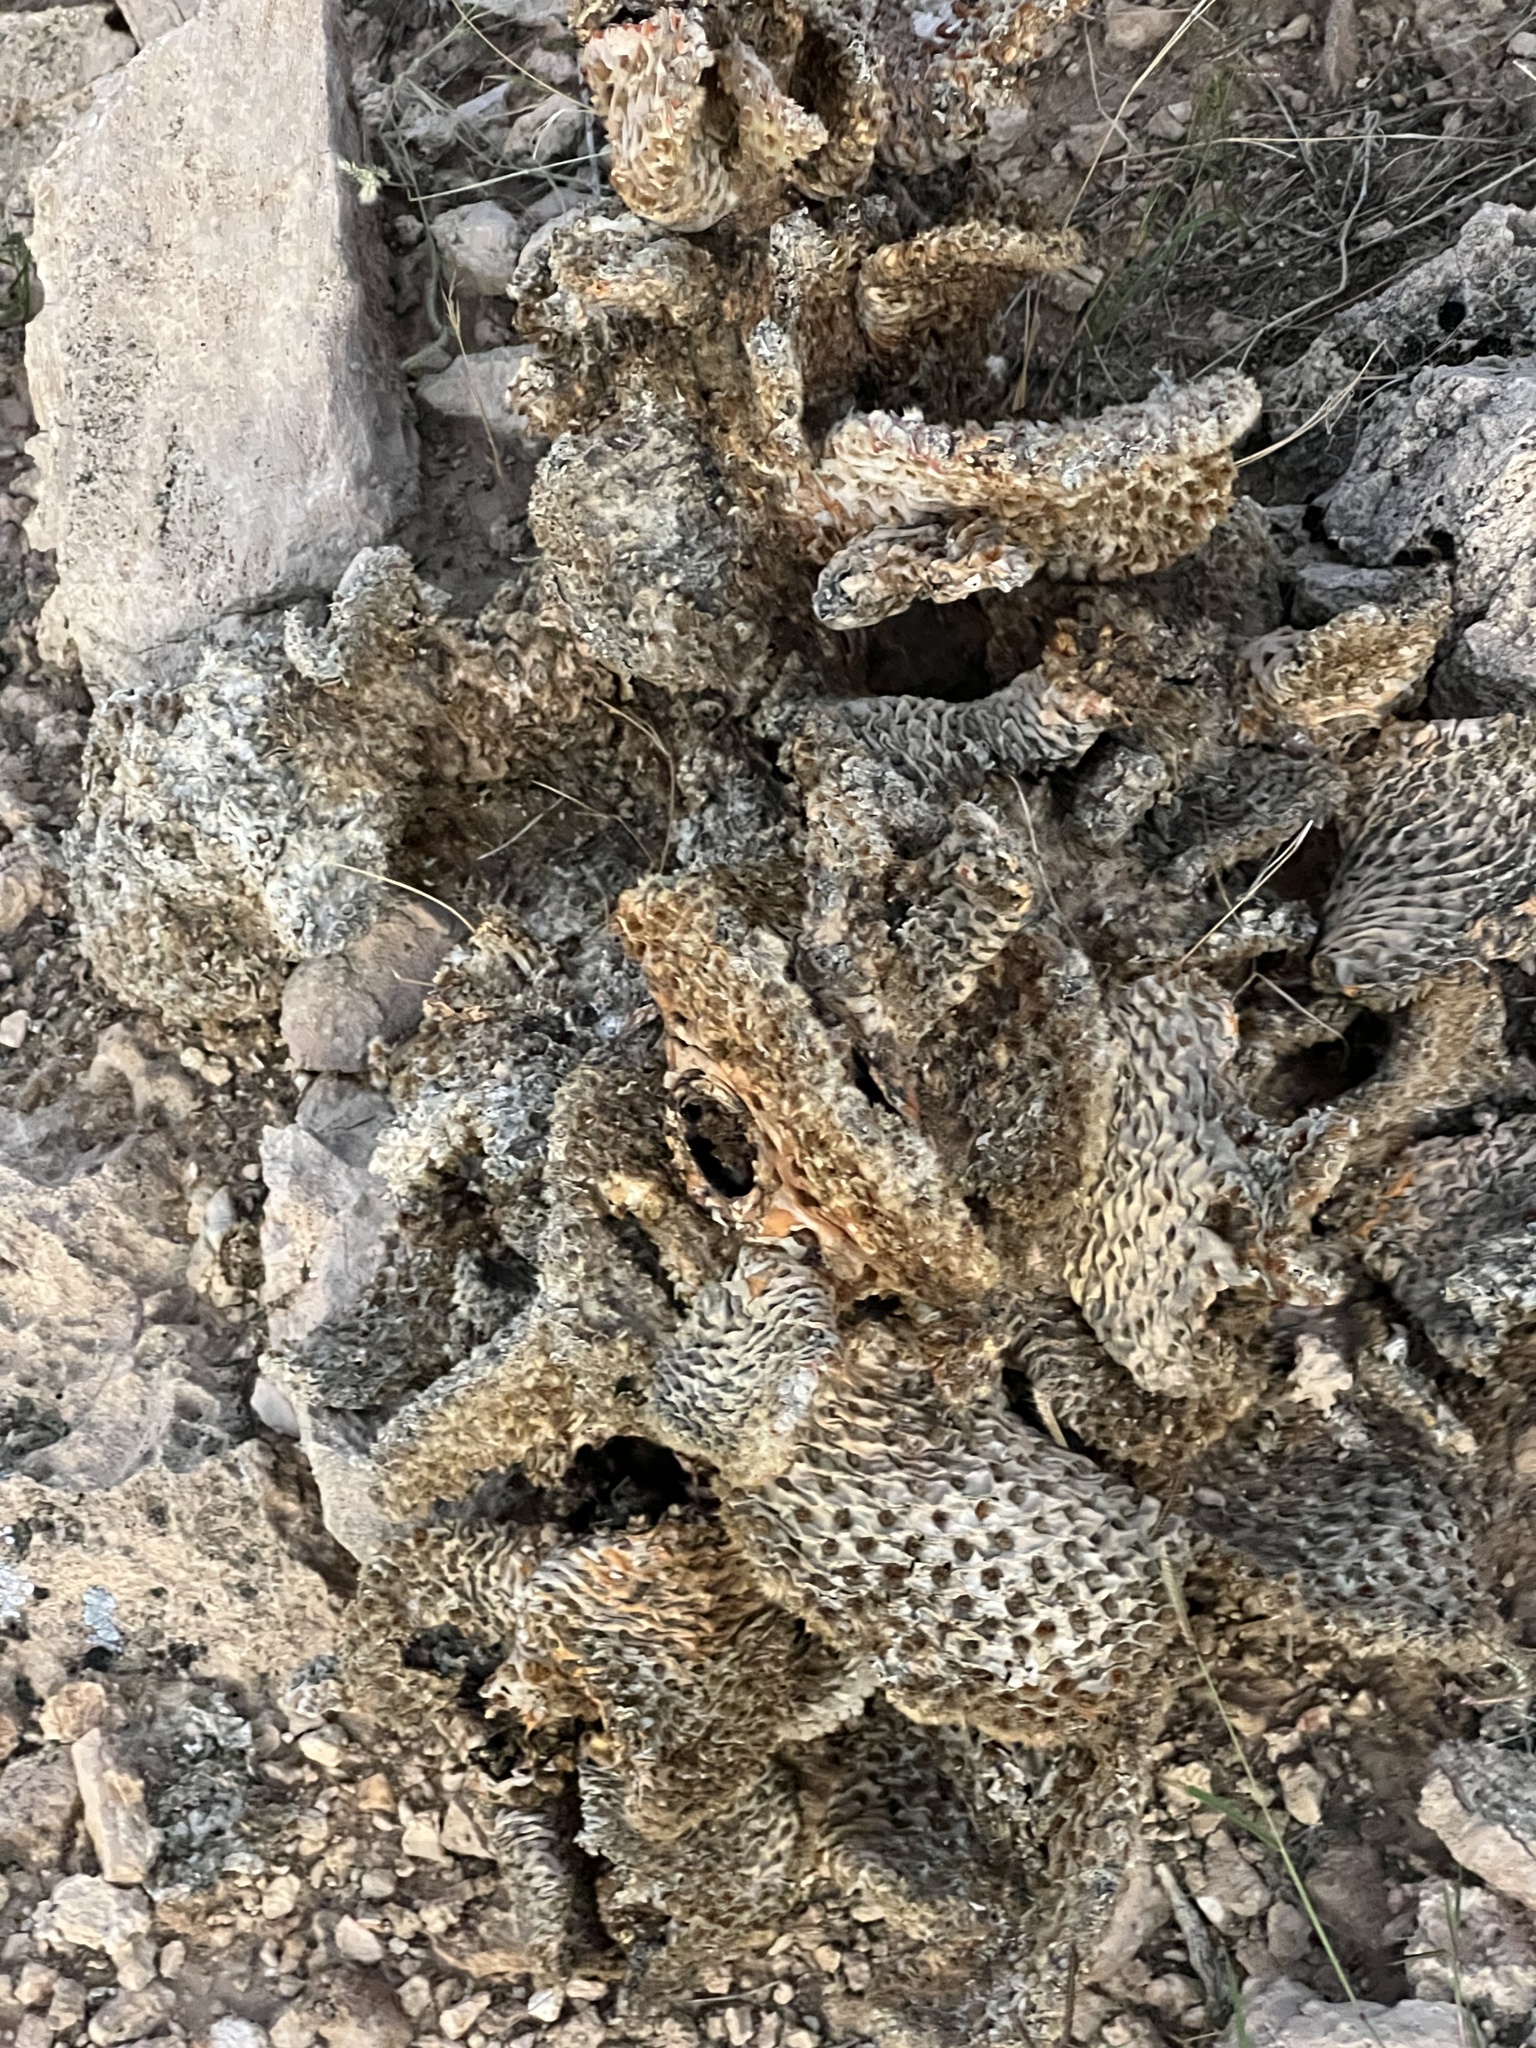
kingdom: Plantae
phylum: Tracheophyta
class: Magnoliopsida
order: Caryophyllales
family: Cactaceae
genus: Opuntia
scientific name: Opuntia basilaris
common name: Beavertail prickly-pear
